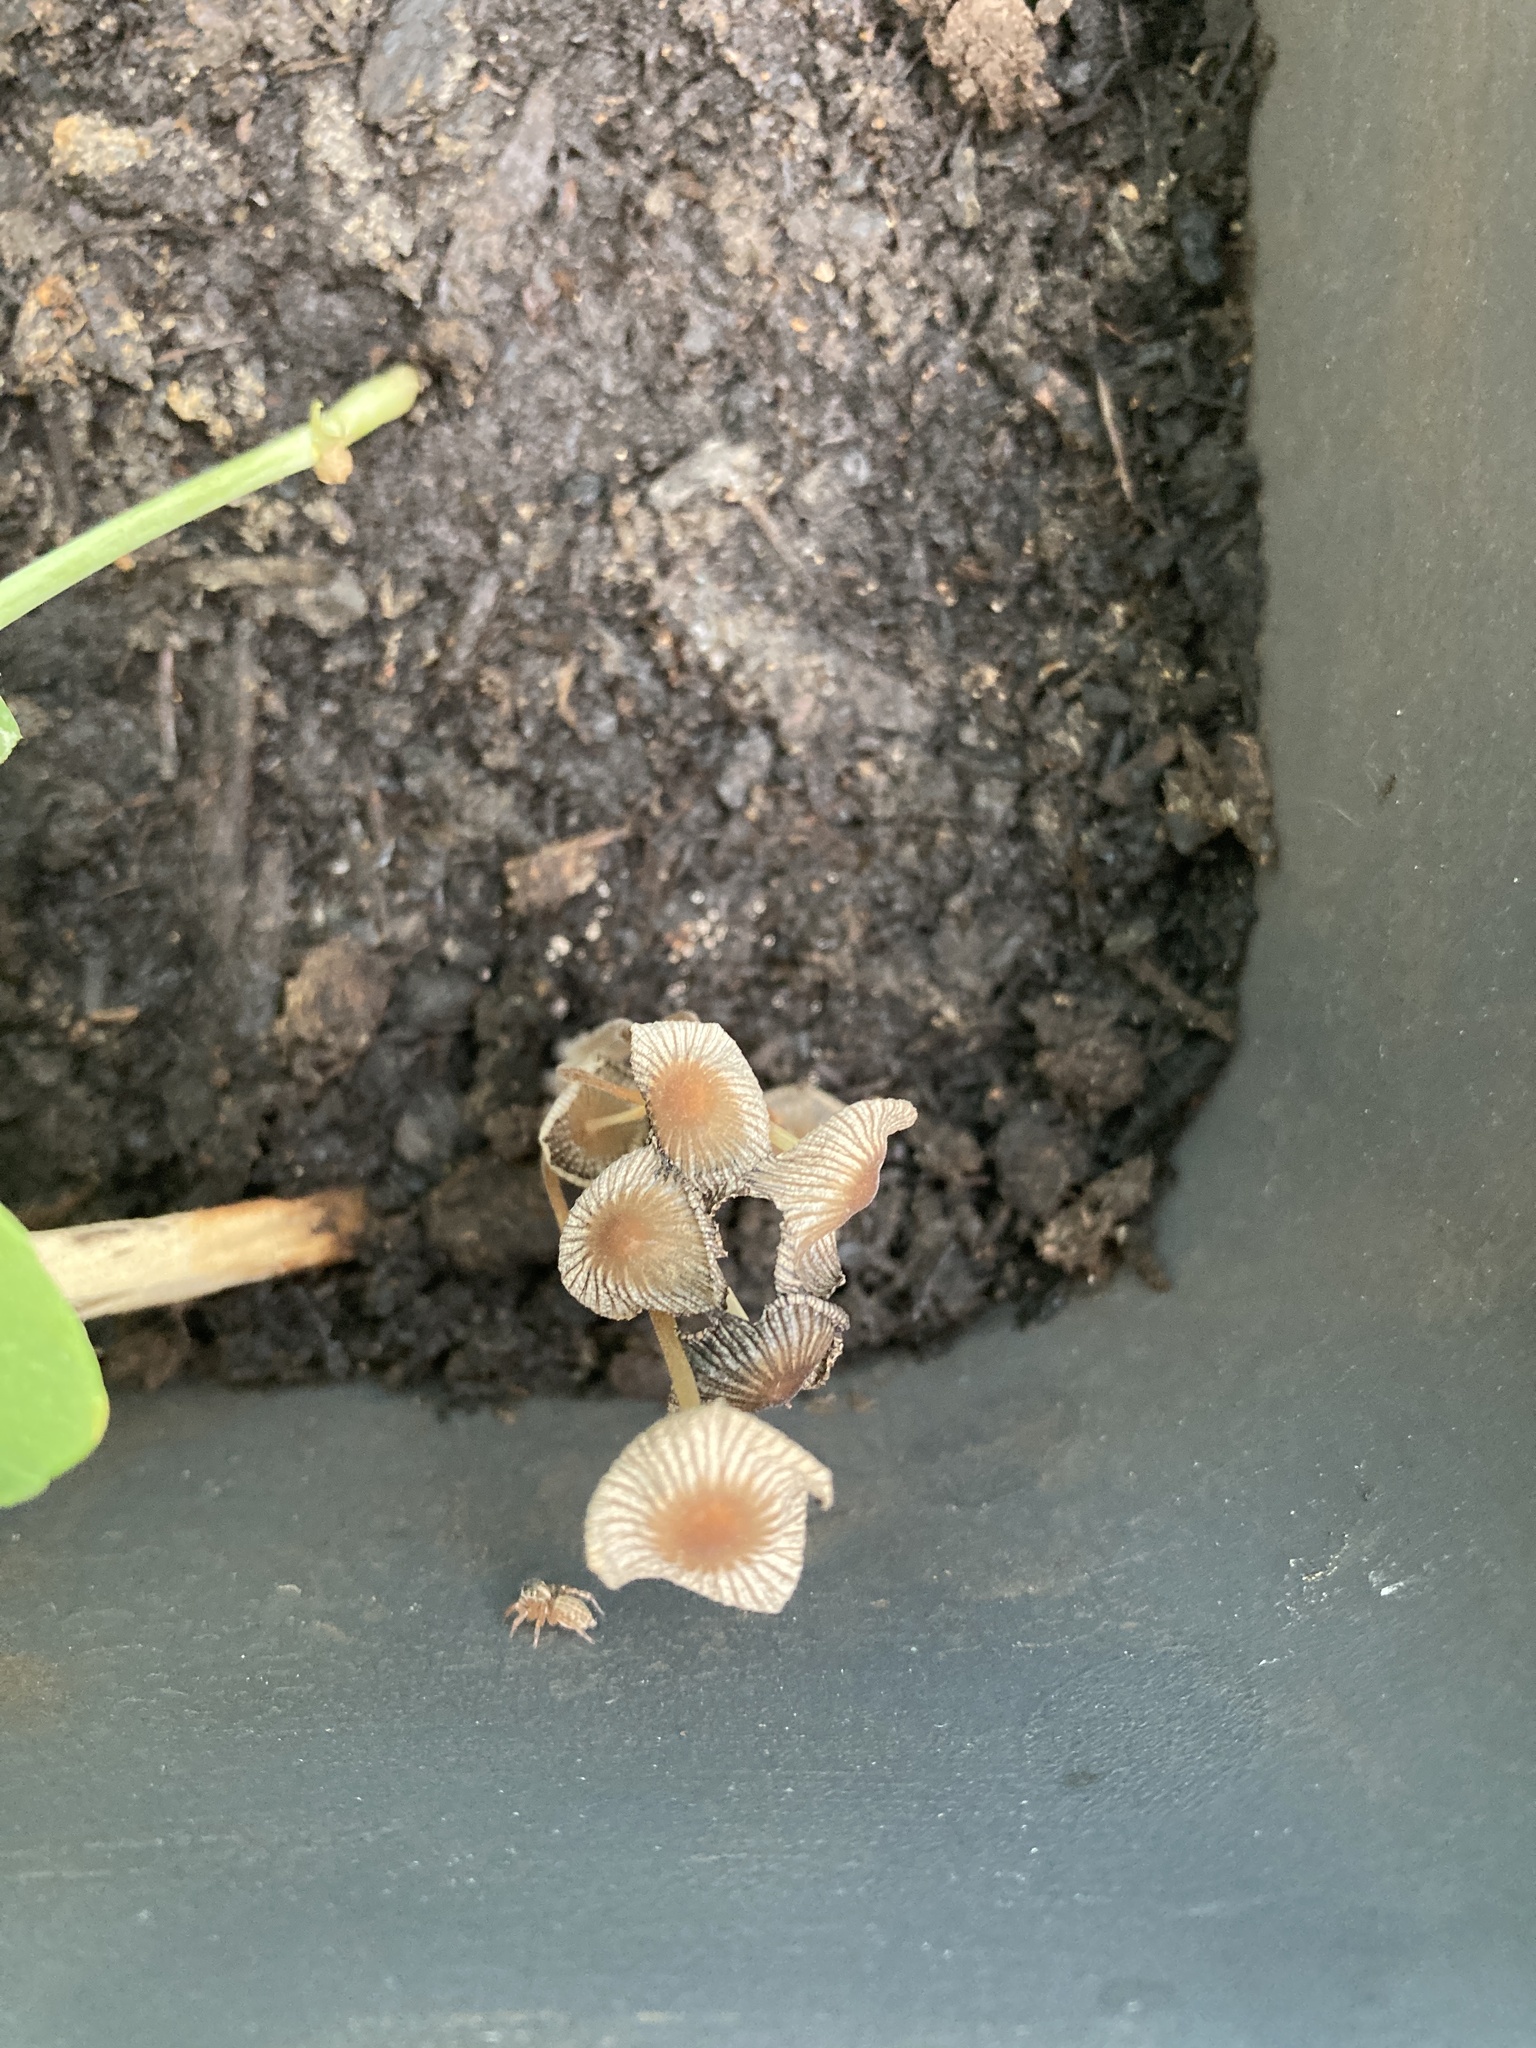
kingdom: Fungi
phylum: Basidiomycota
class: Agaricomycetes
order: Agaricales
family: Psathyrellaceae
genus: Coprinellus
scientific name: Coprinellus micaceus
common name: Glistening ink-cap
